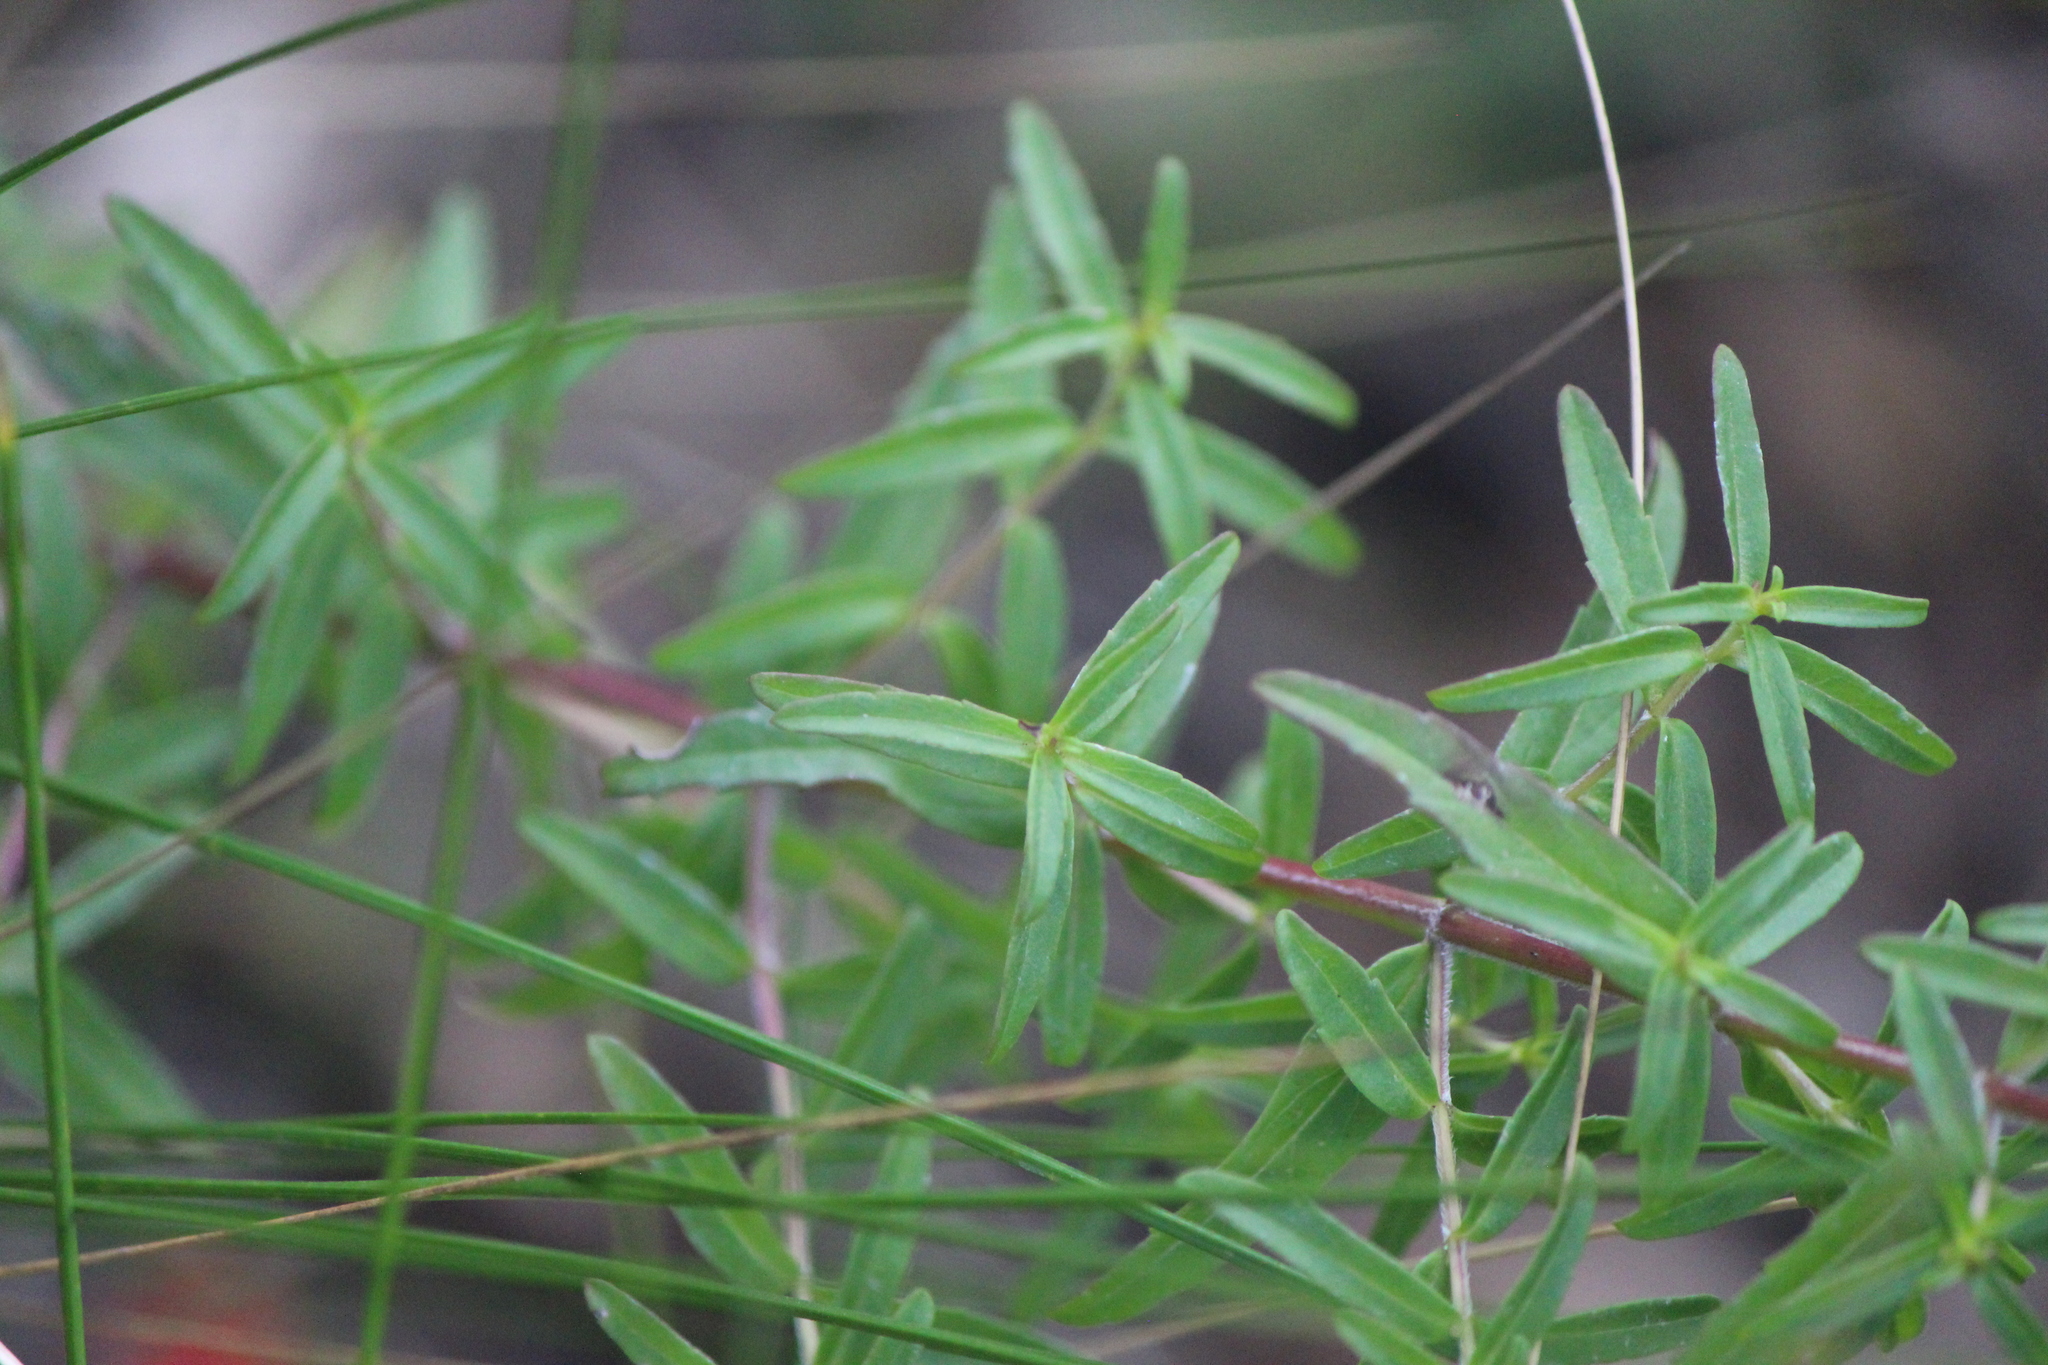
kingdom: Plantae
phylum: Tracheophyta
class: Magnoliopsida
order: Lamiales
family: Orobanchaceae
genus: Lamourouxia
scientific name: Lamourouxia dasyantha
